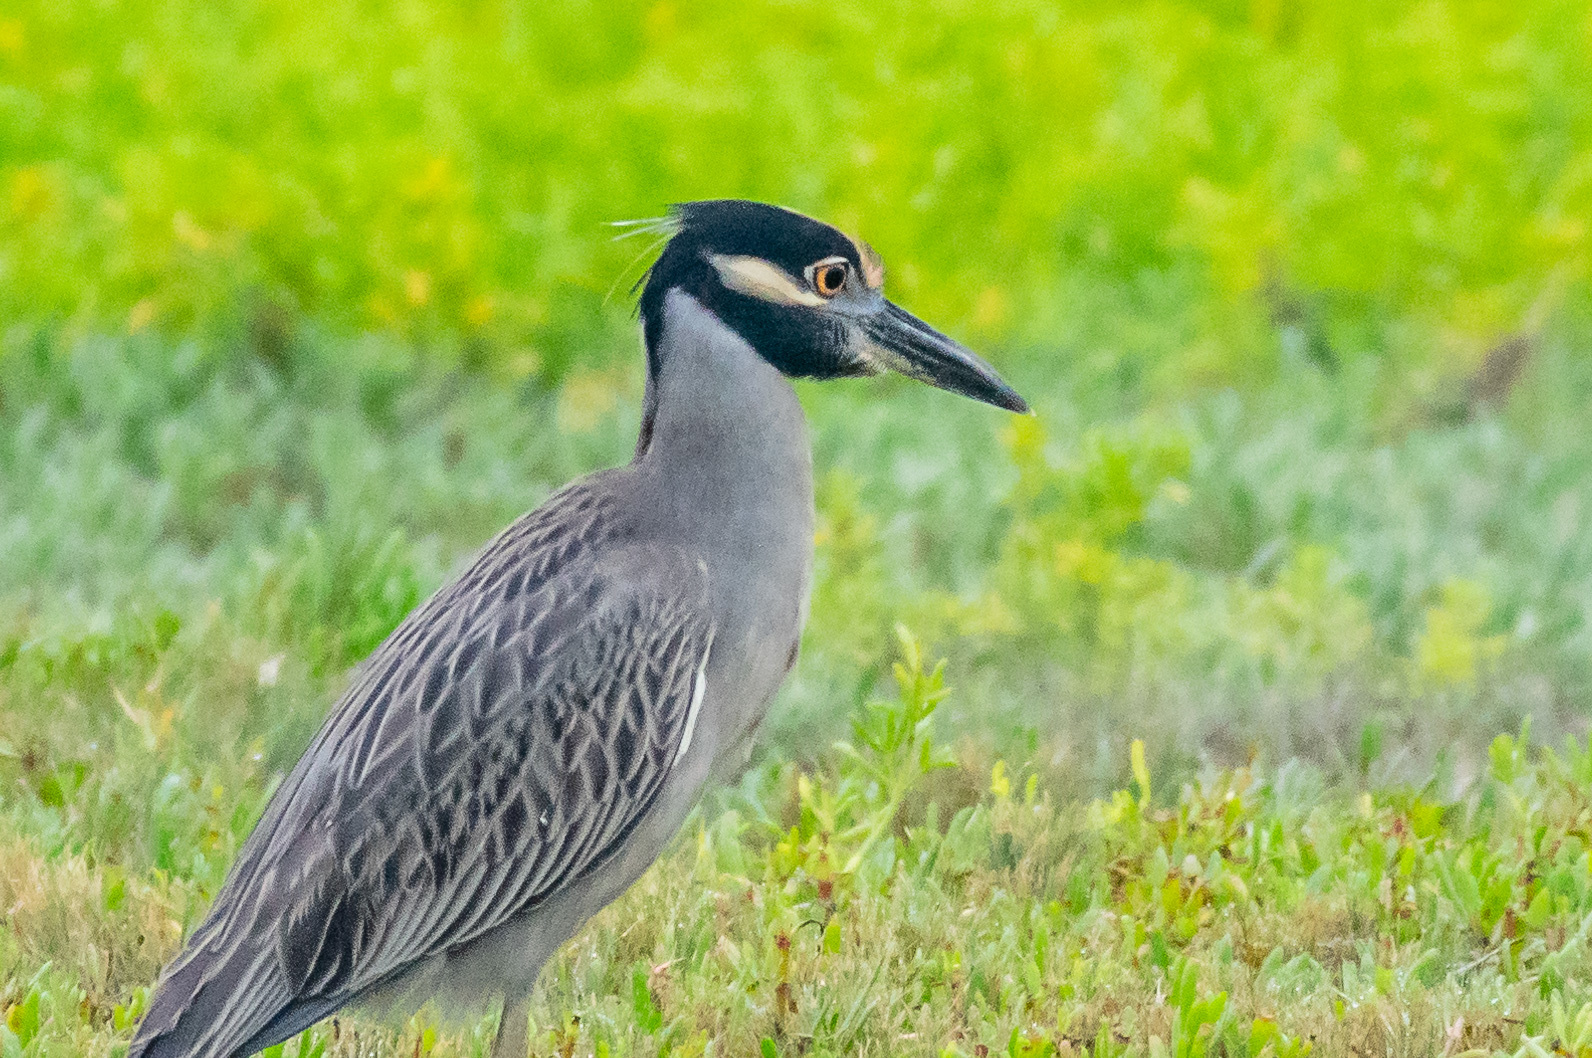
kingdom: Animalia
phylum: Chordata
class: Aves
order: Pelecaniformes
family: Ardeidae
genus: Nyctanassa
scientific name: Nyctanassa violacea
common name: Yellow-crowned night heron
